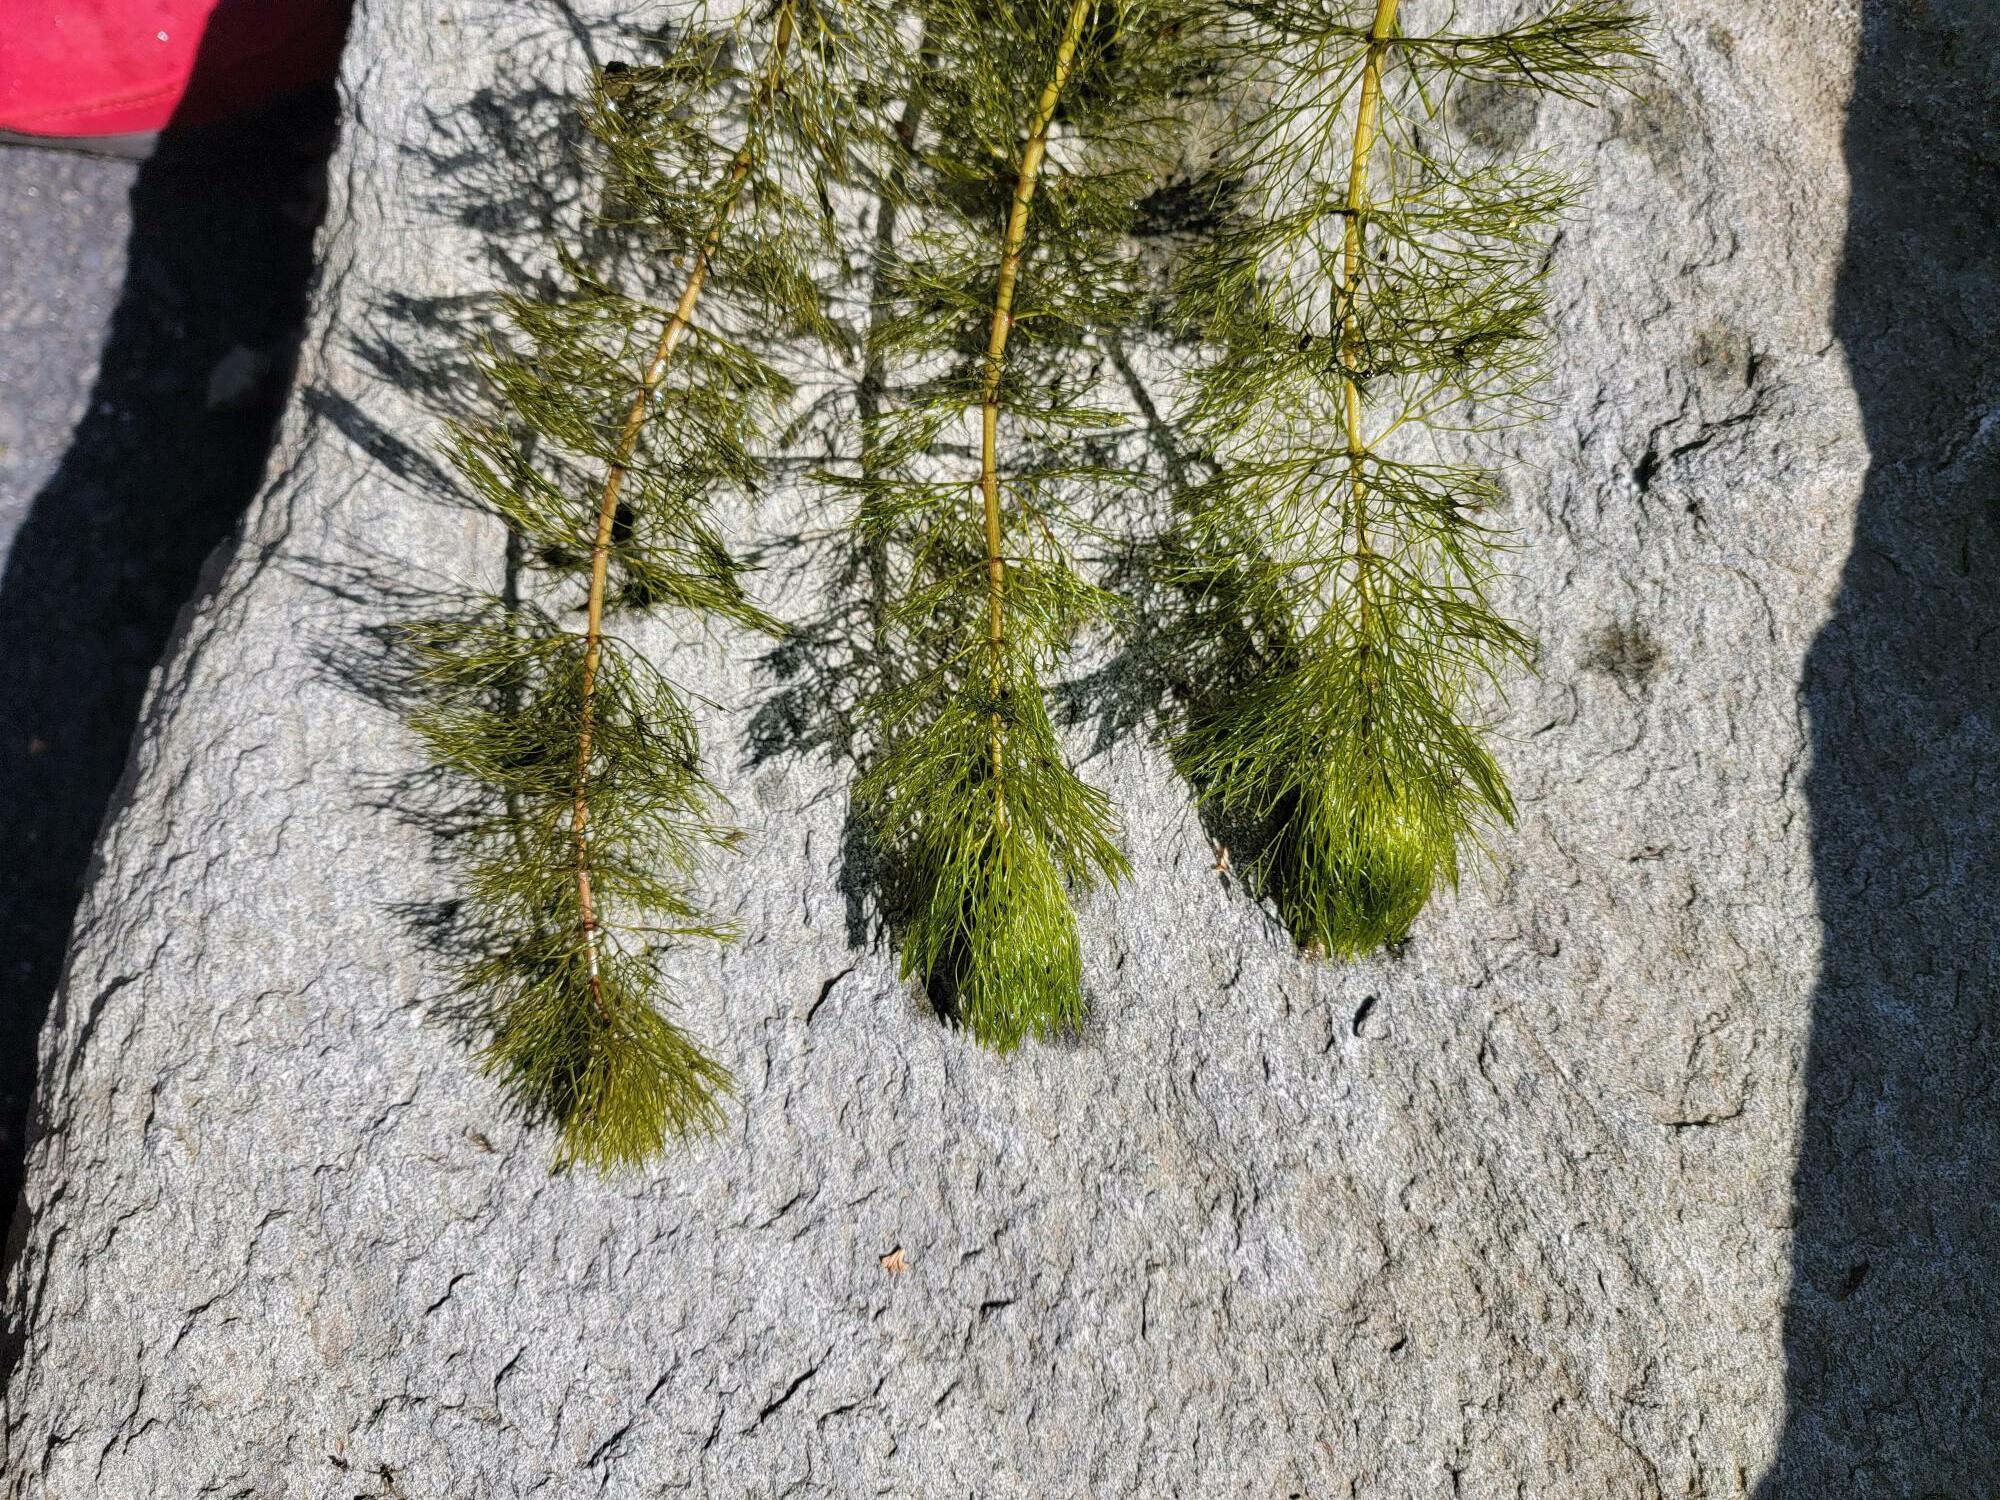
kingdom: Plantae
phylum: Tracheophyta
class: Magnoliopsida
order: Asterales
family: Asteraceae
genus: Bidens
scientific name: Bidens beckii
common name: Beck's beggarticks
